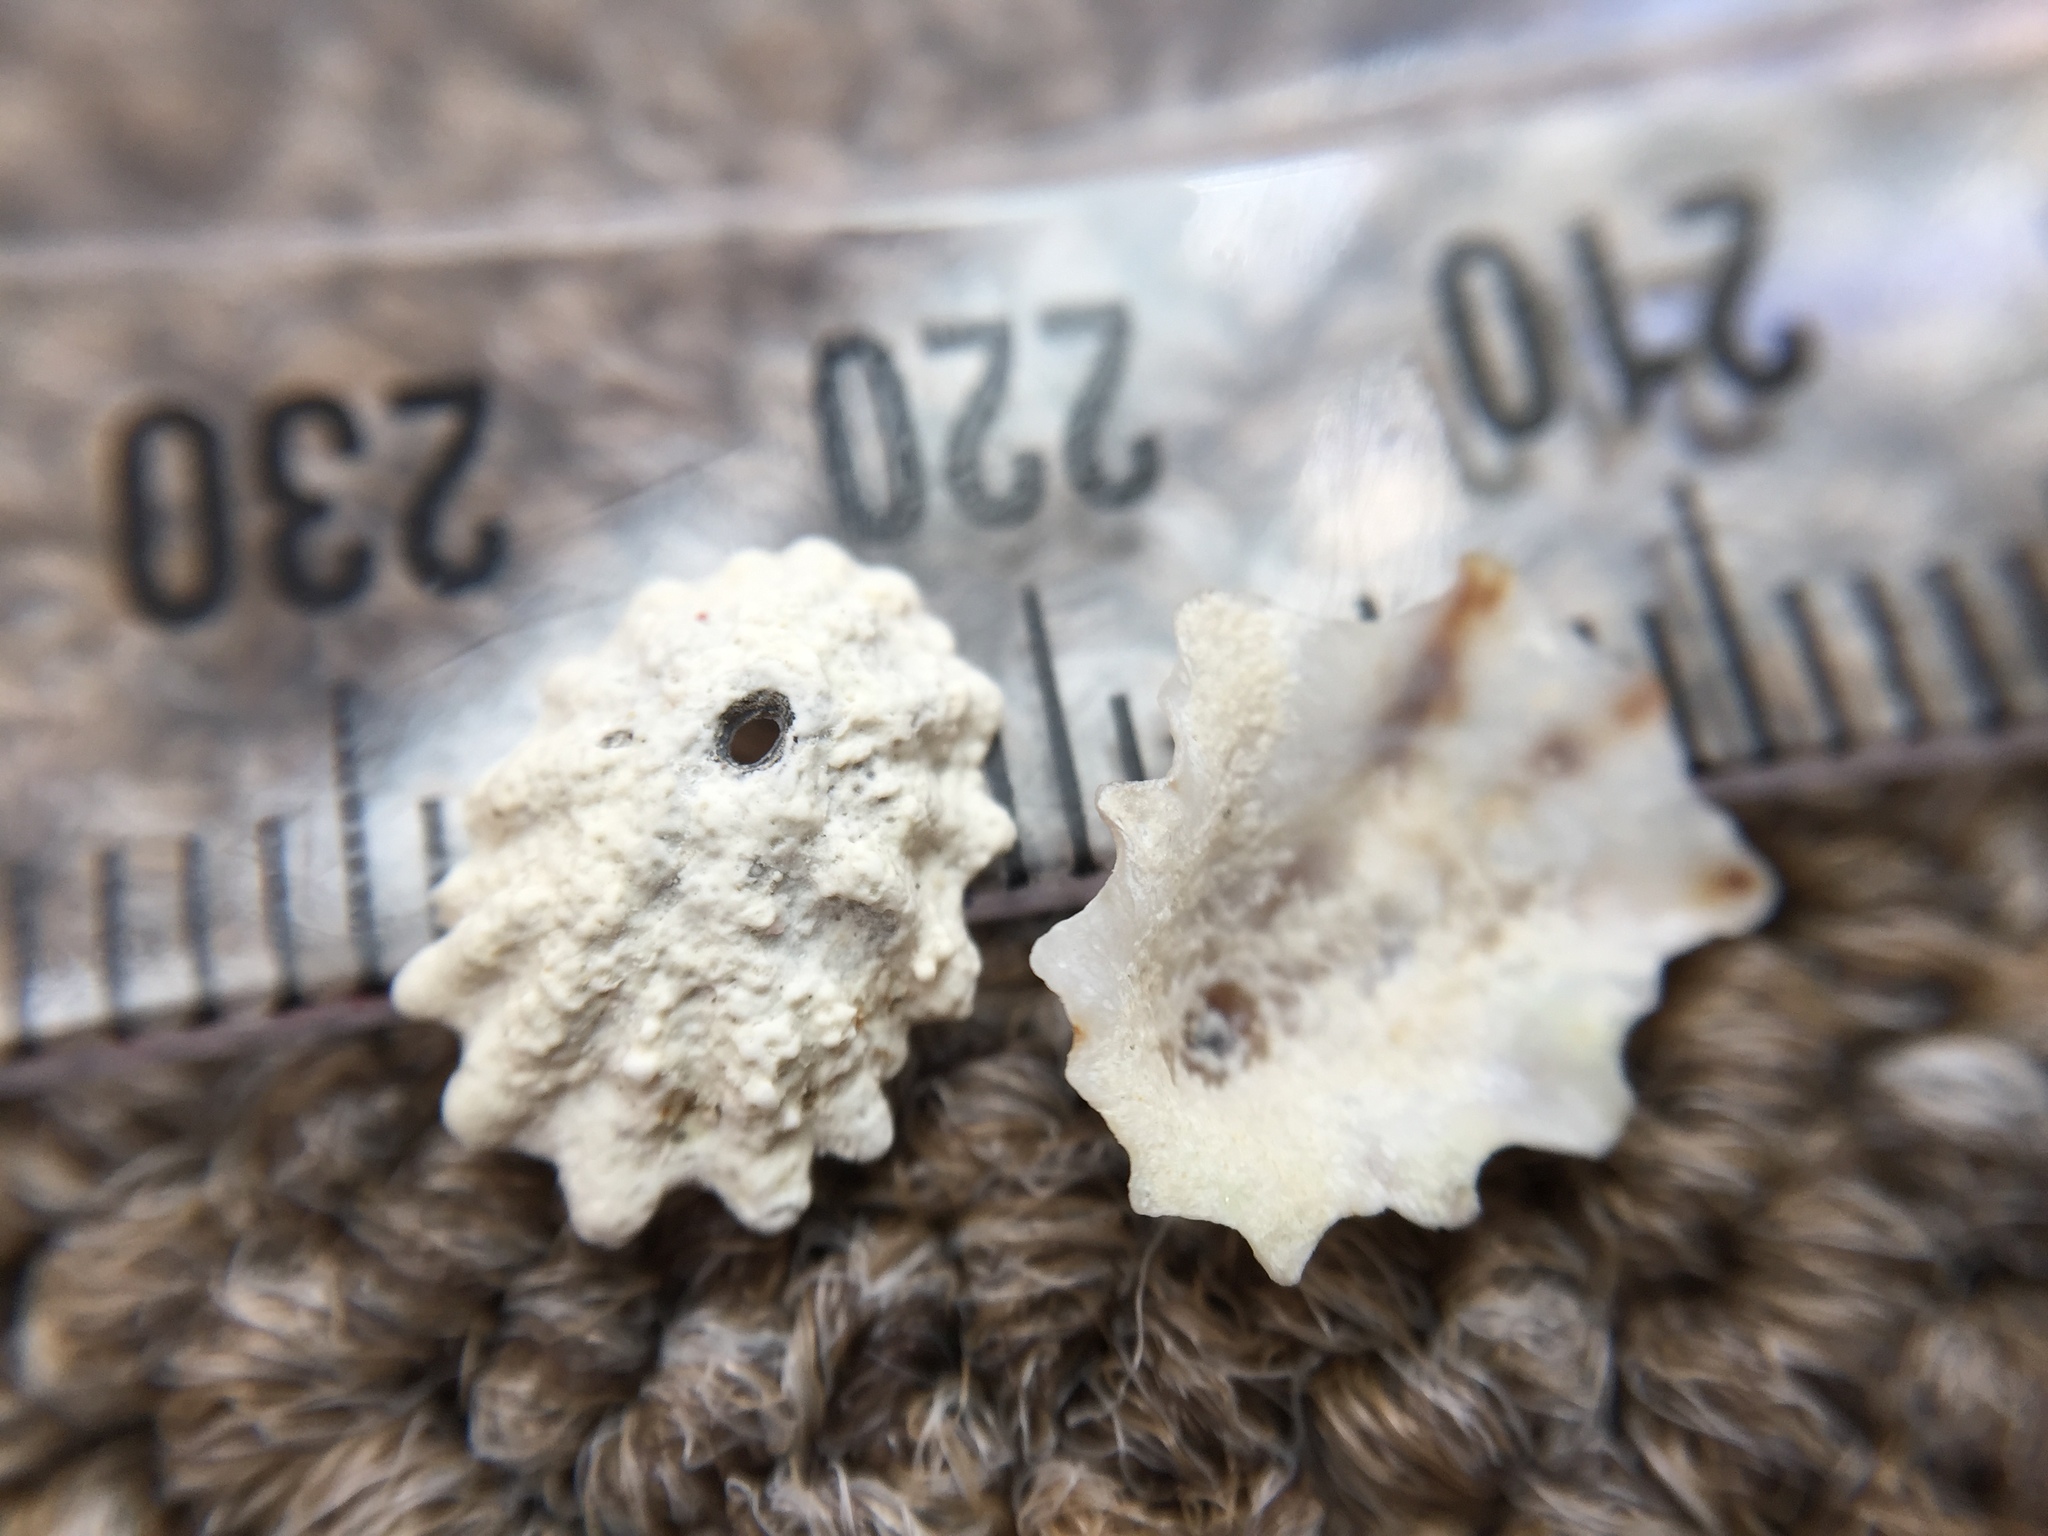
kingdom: Animalia
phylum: Mollusca
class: Gastropoda
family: Lottiidae
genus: Patelloida
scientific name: Patelloida corticata
